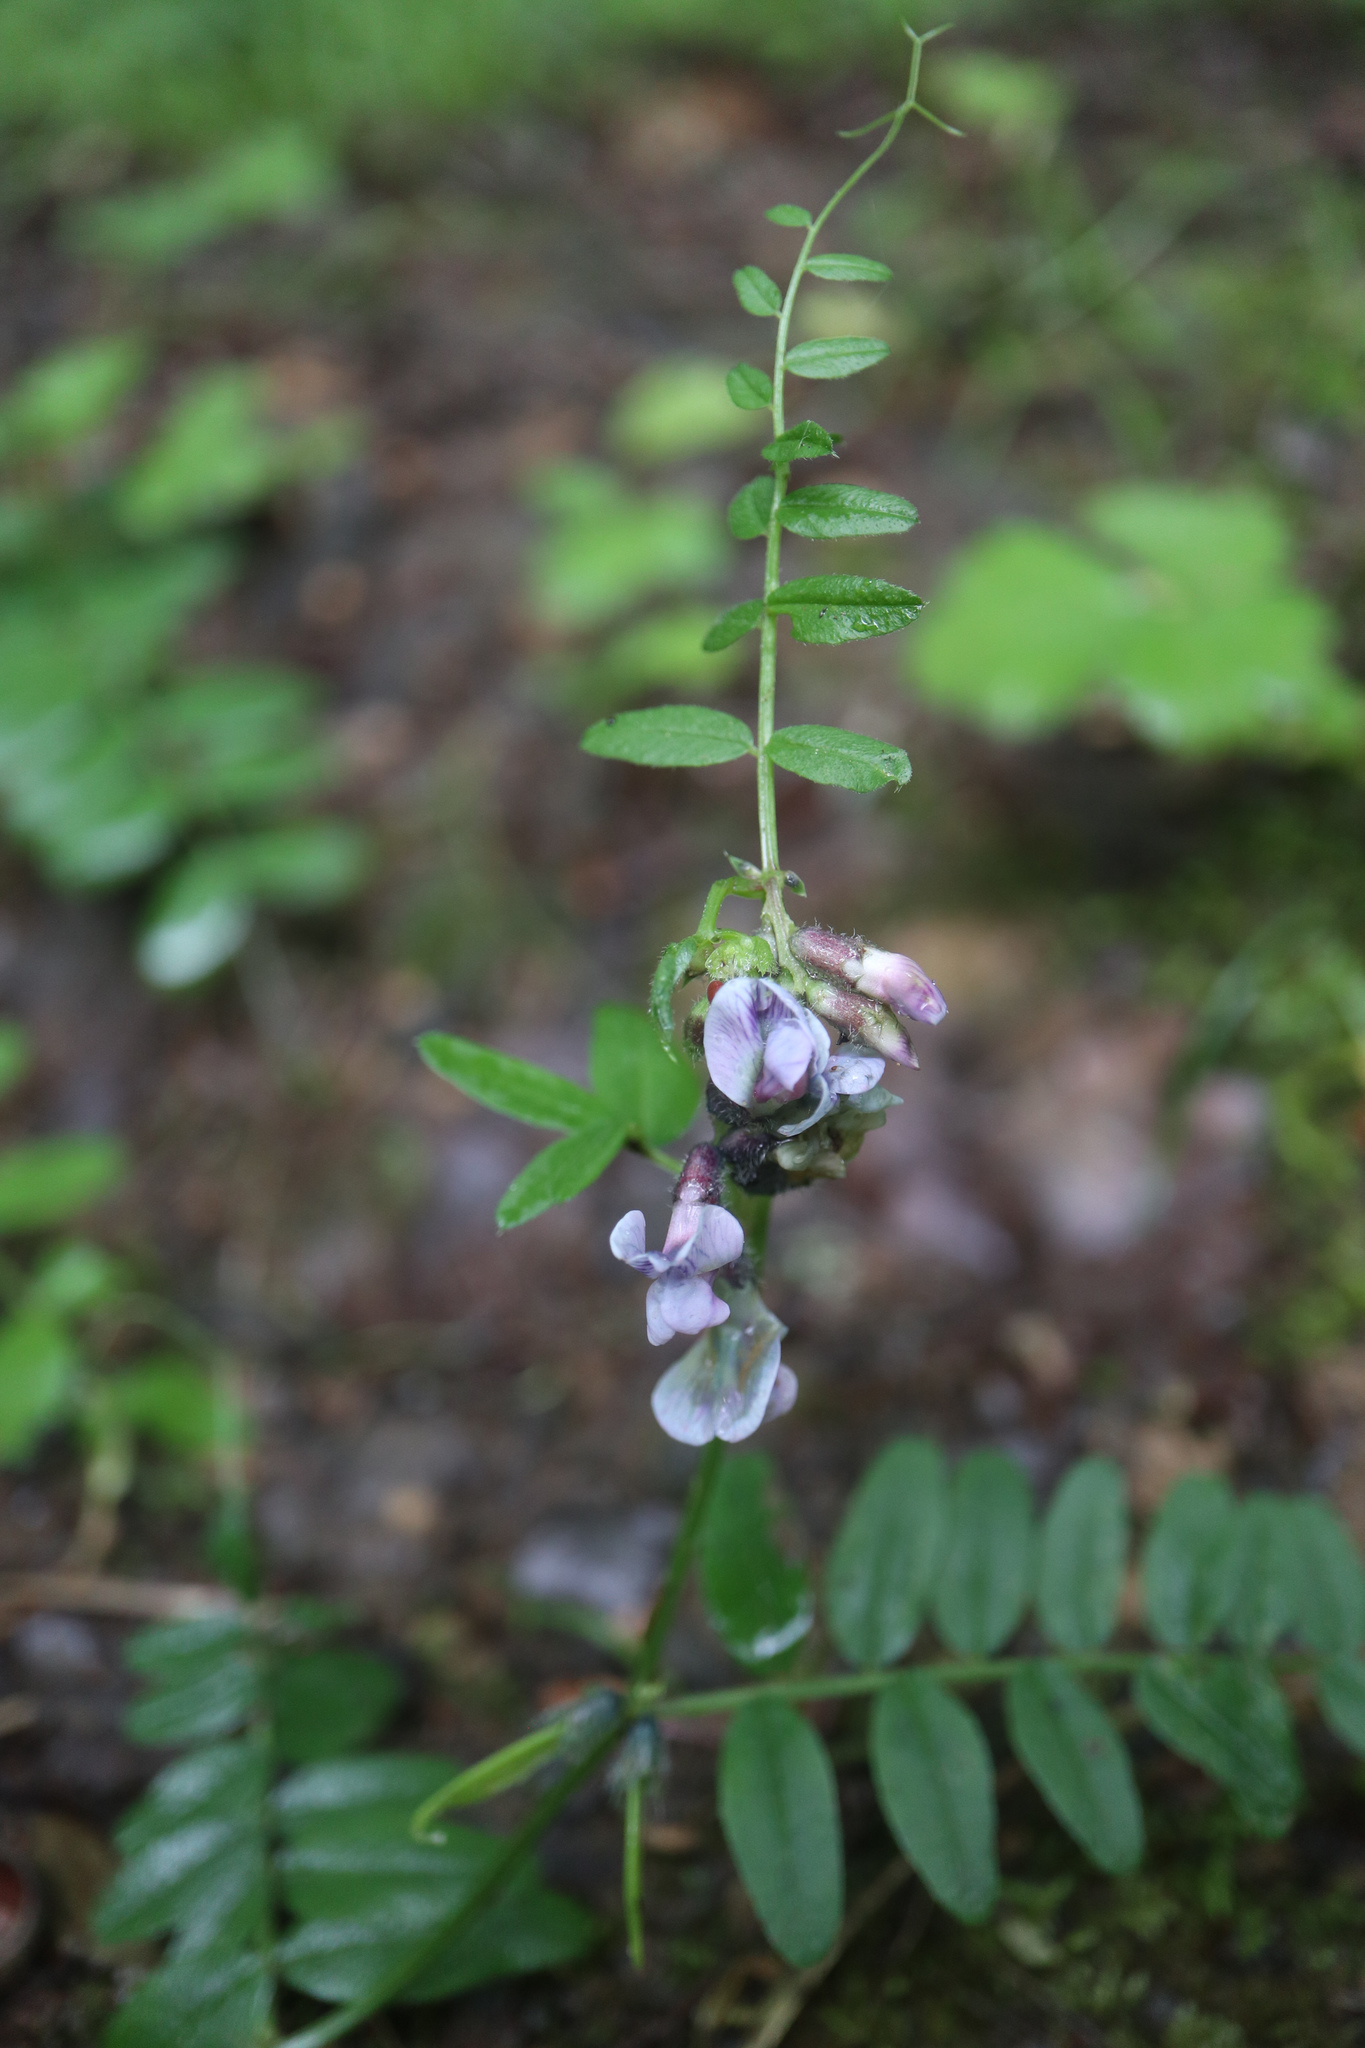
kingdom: Plantae
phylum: Tracheophyta
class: Magnoliopsida
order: Fabales
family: Fabaceae
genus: Vicia
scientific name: Vicia sepium
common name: Bush vetch
